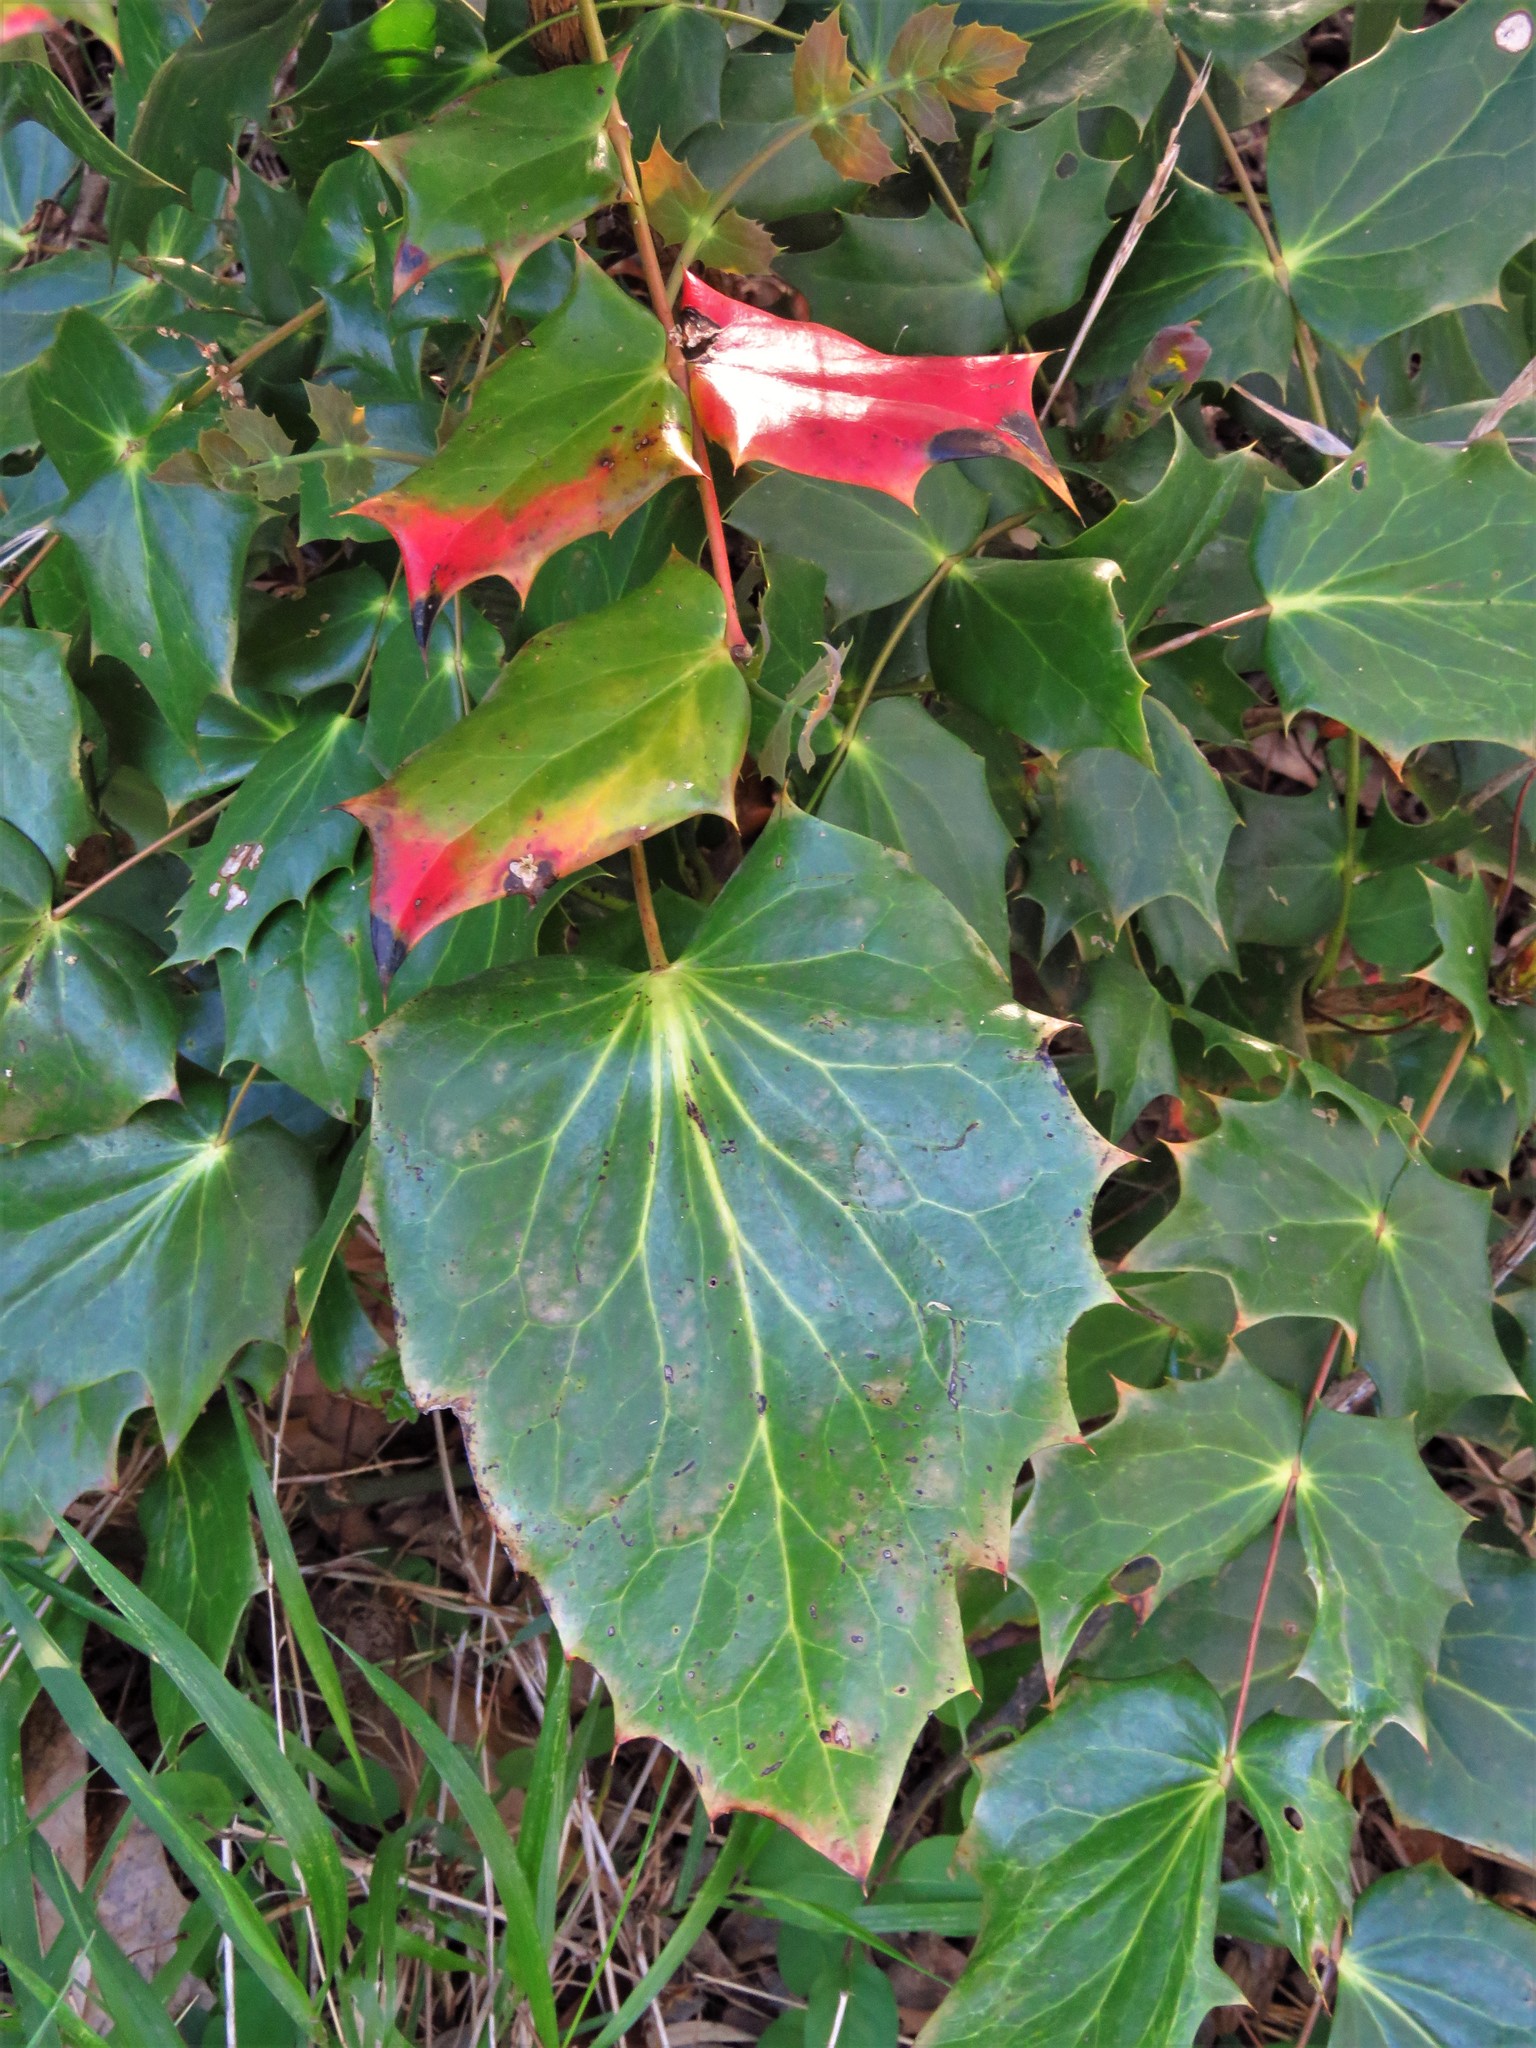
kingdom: Plantae
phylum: Tracheophyta
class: Magnoliopsida
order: Ranunculales
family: Berberidaceae
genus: Mahonia
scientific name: Mahonia bealei
